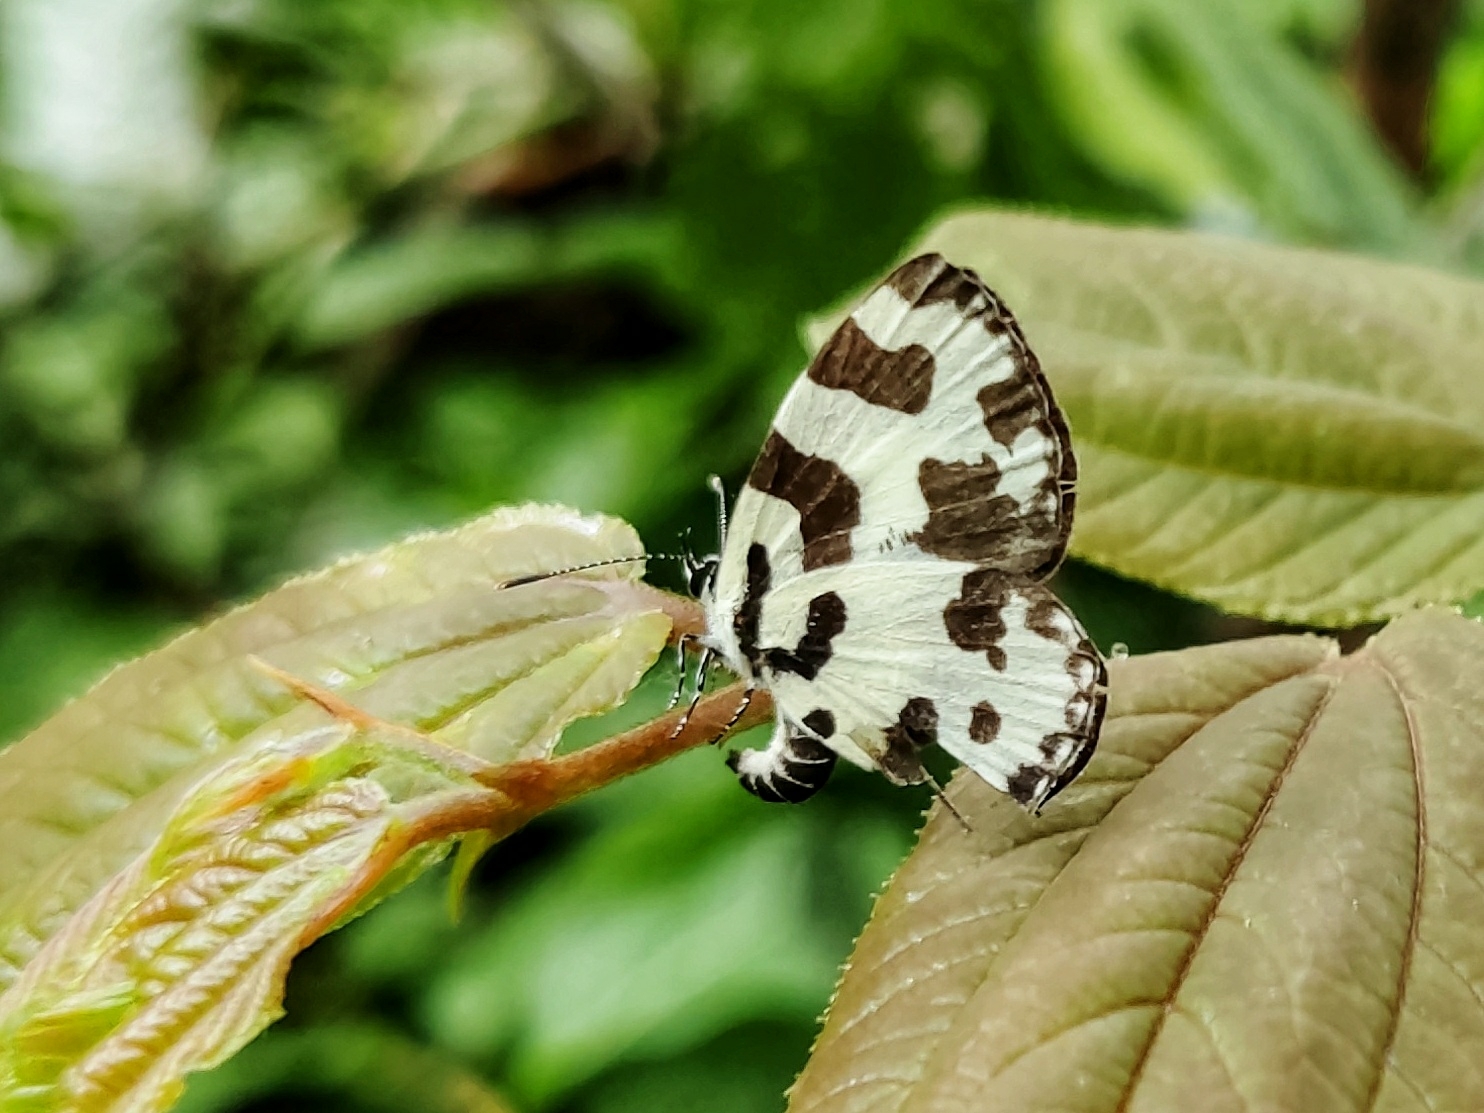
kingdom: Animalia
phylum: Arthropoda
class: Insecta
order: Lepidoptera
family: Lycaenidae
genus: Caleta
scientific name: Caleta decidia
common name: Angled pierrot
